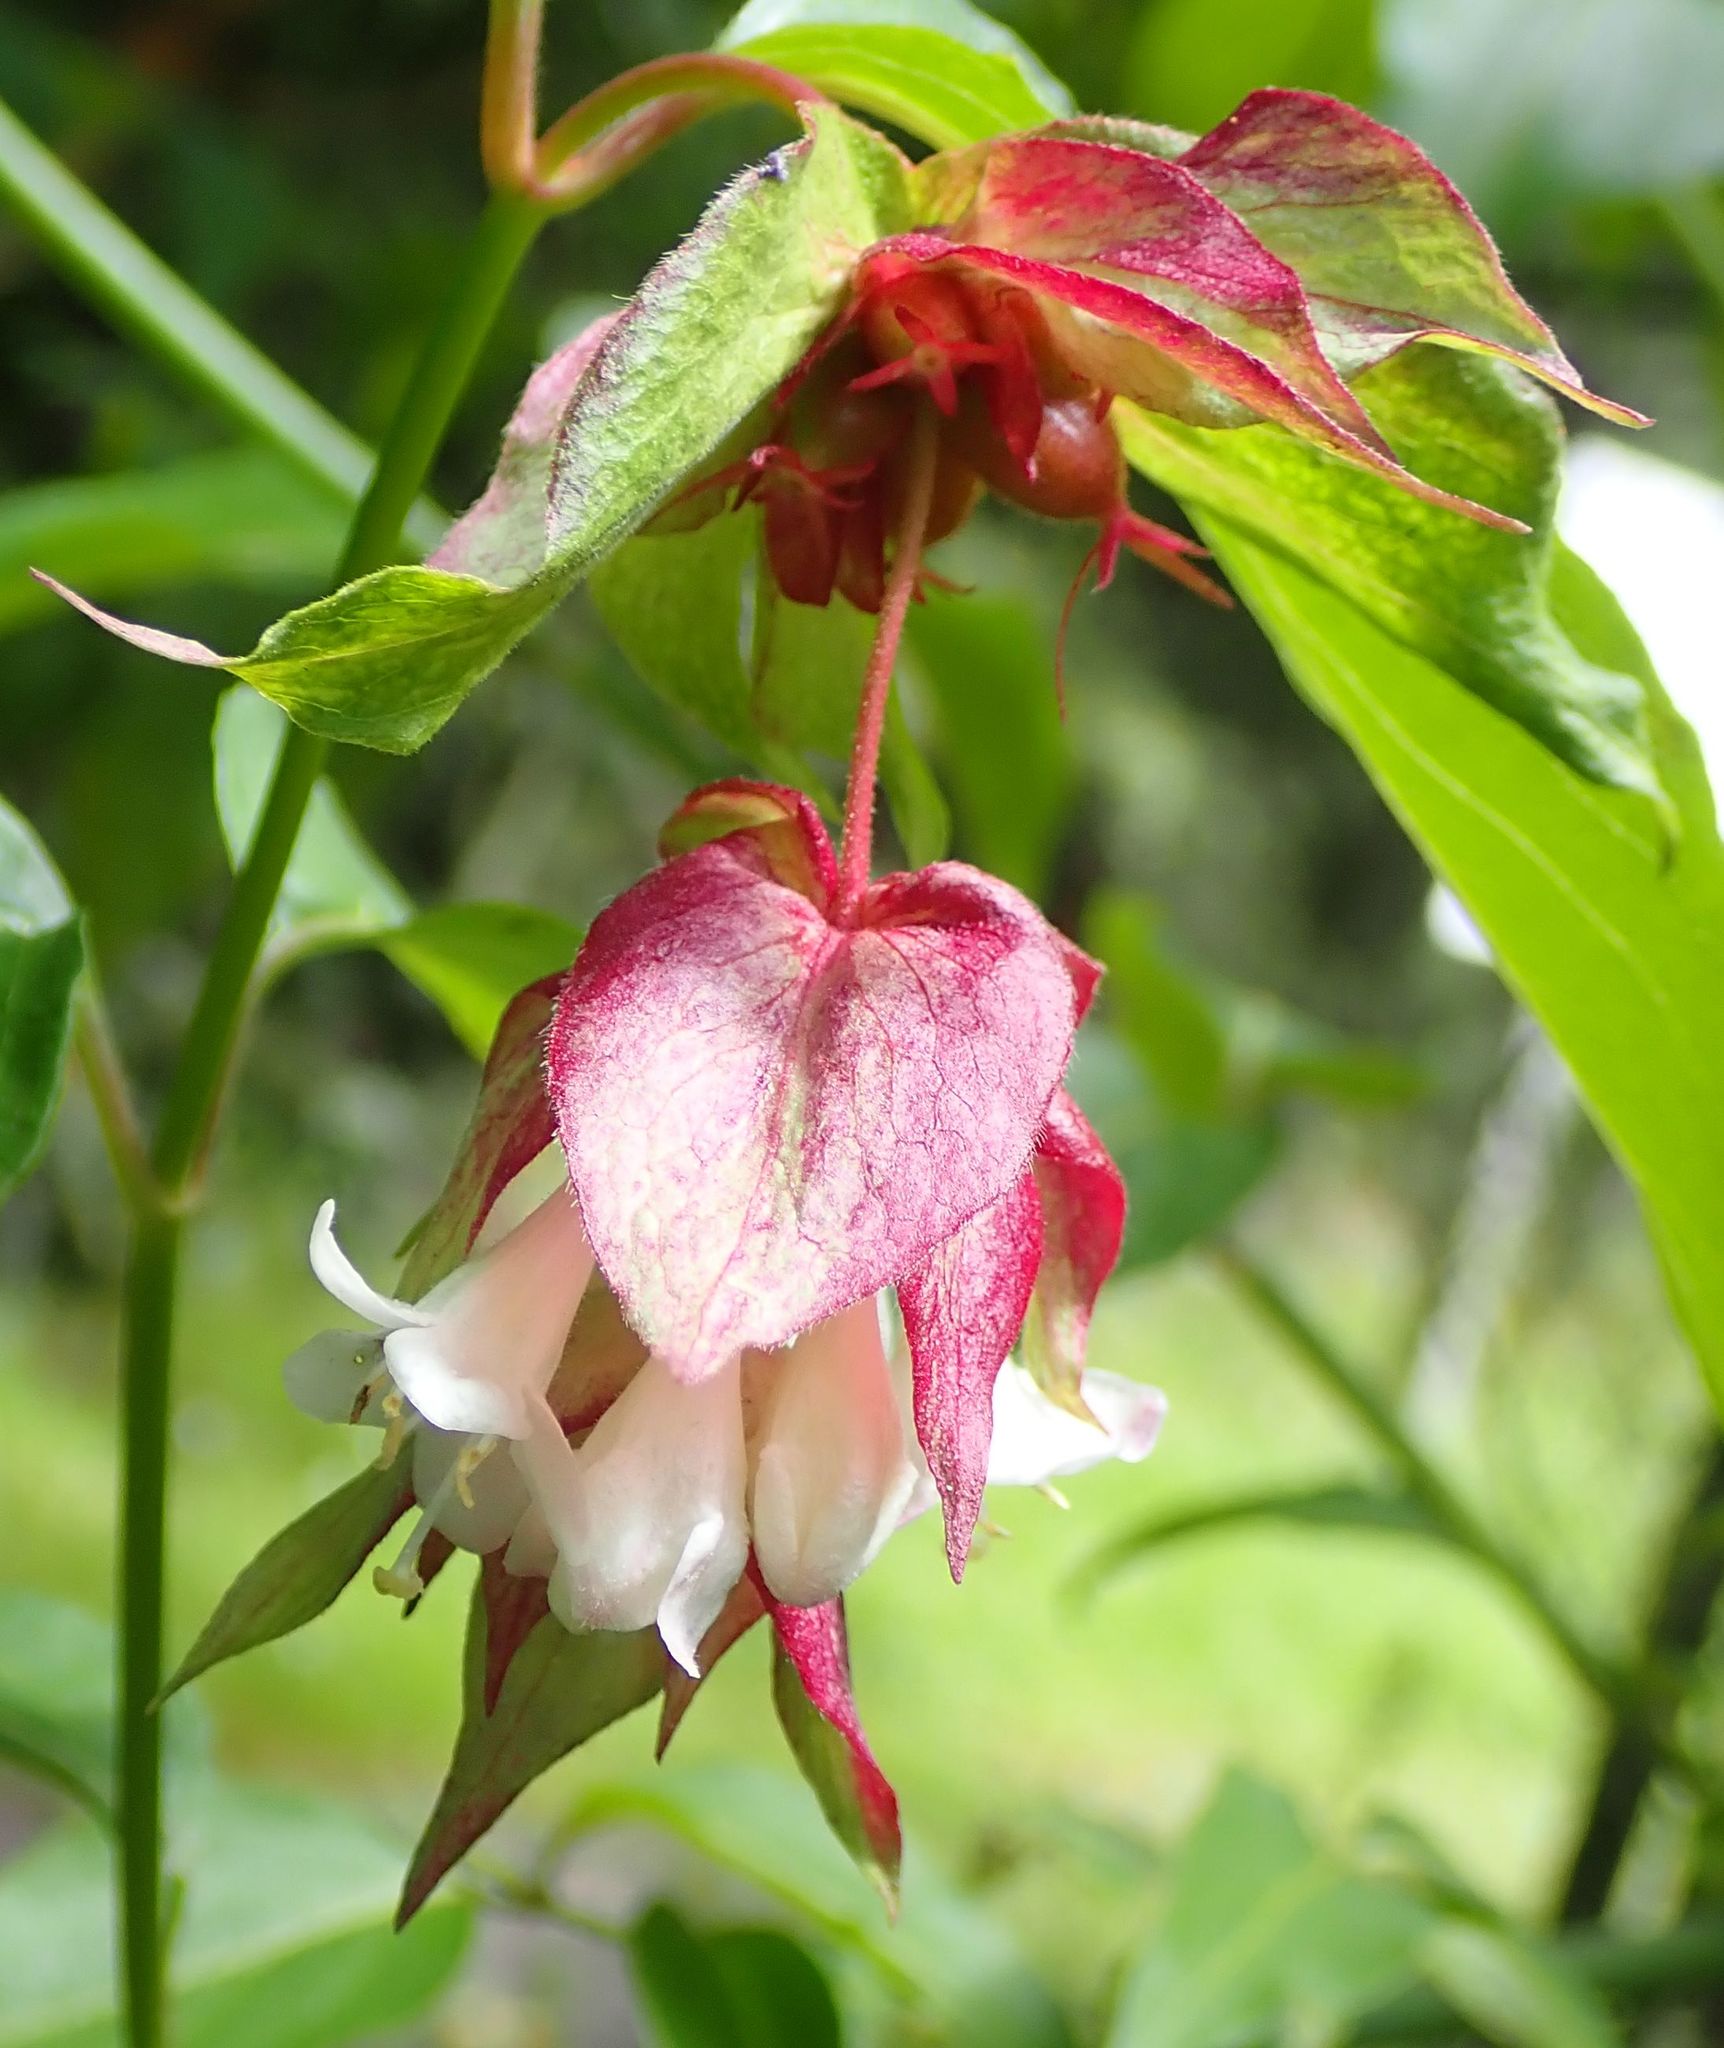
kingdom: Plantae
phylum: Tracheophyta
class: Magnoliopsida
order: Dipsacales
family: Caprifoliaceae
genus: Leycesteria
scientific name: Leycesteria formosa
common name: Himalayan honeysuckle
